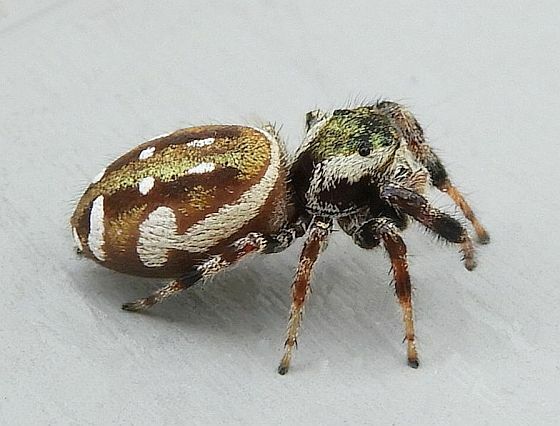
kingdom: Animalia
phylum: Arthropoda
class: Arachnida
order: Araneae
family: Salticidae
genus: Paraphidippus
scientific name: Paraphidippus aurantius
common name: Jumping spiders
